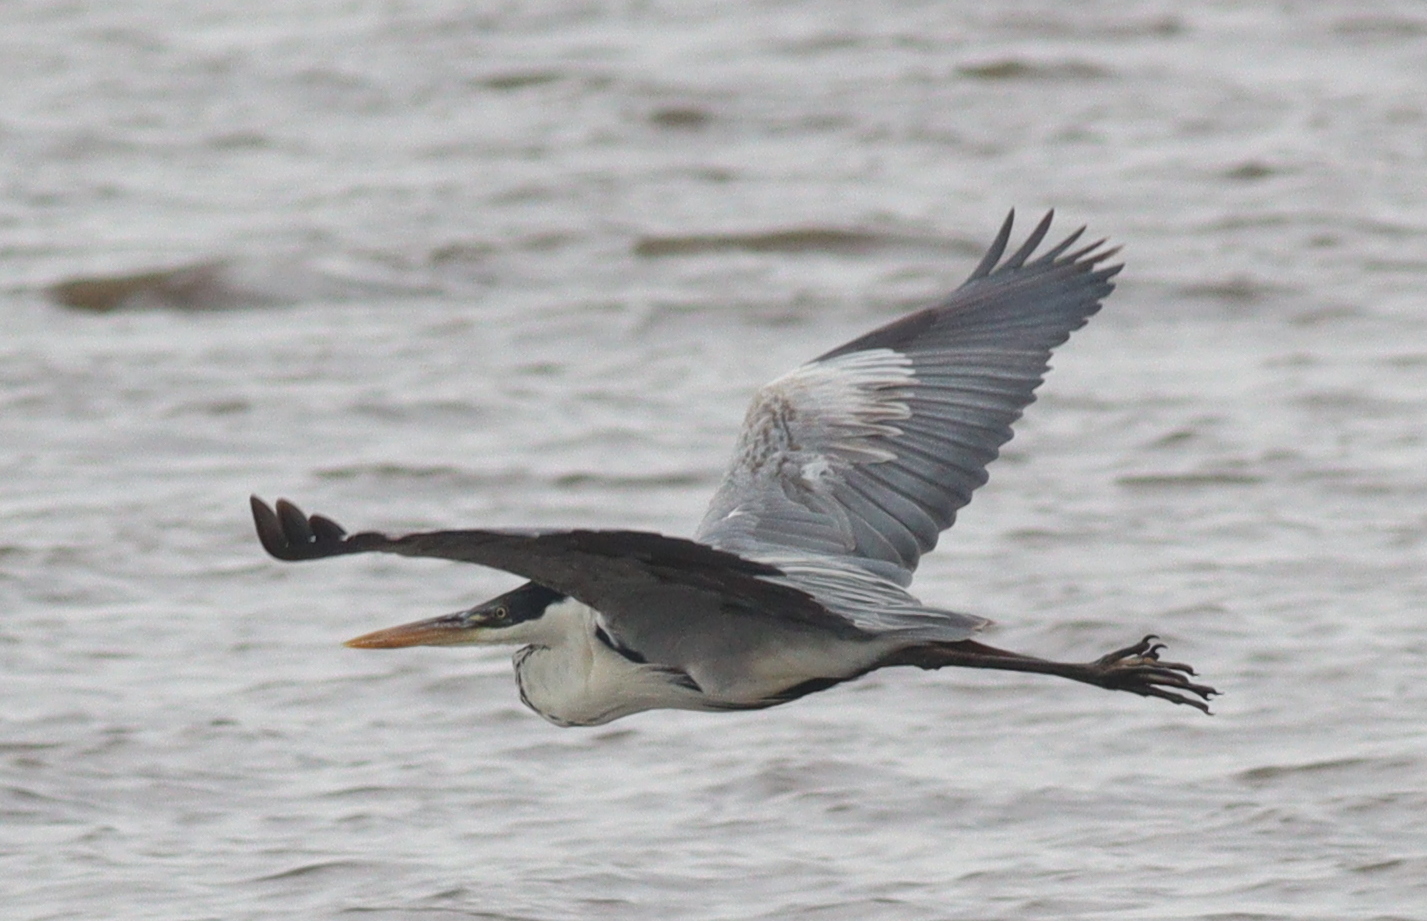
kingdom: Animalia
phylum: Chordata
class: Aves
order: Pelecaniformes
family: Ardeidae
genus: Ardea
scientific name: Ardea cocoi
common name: Cocoi heron
